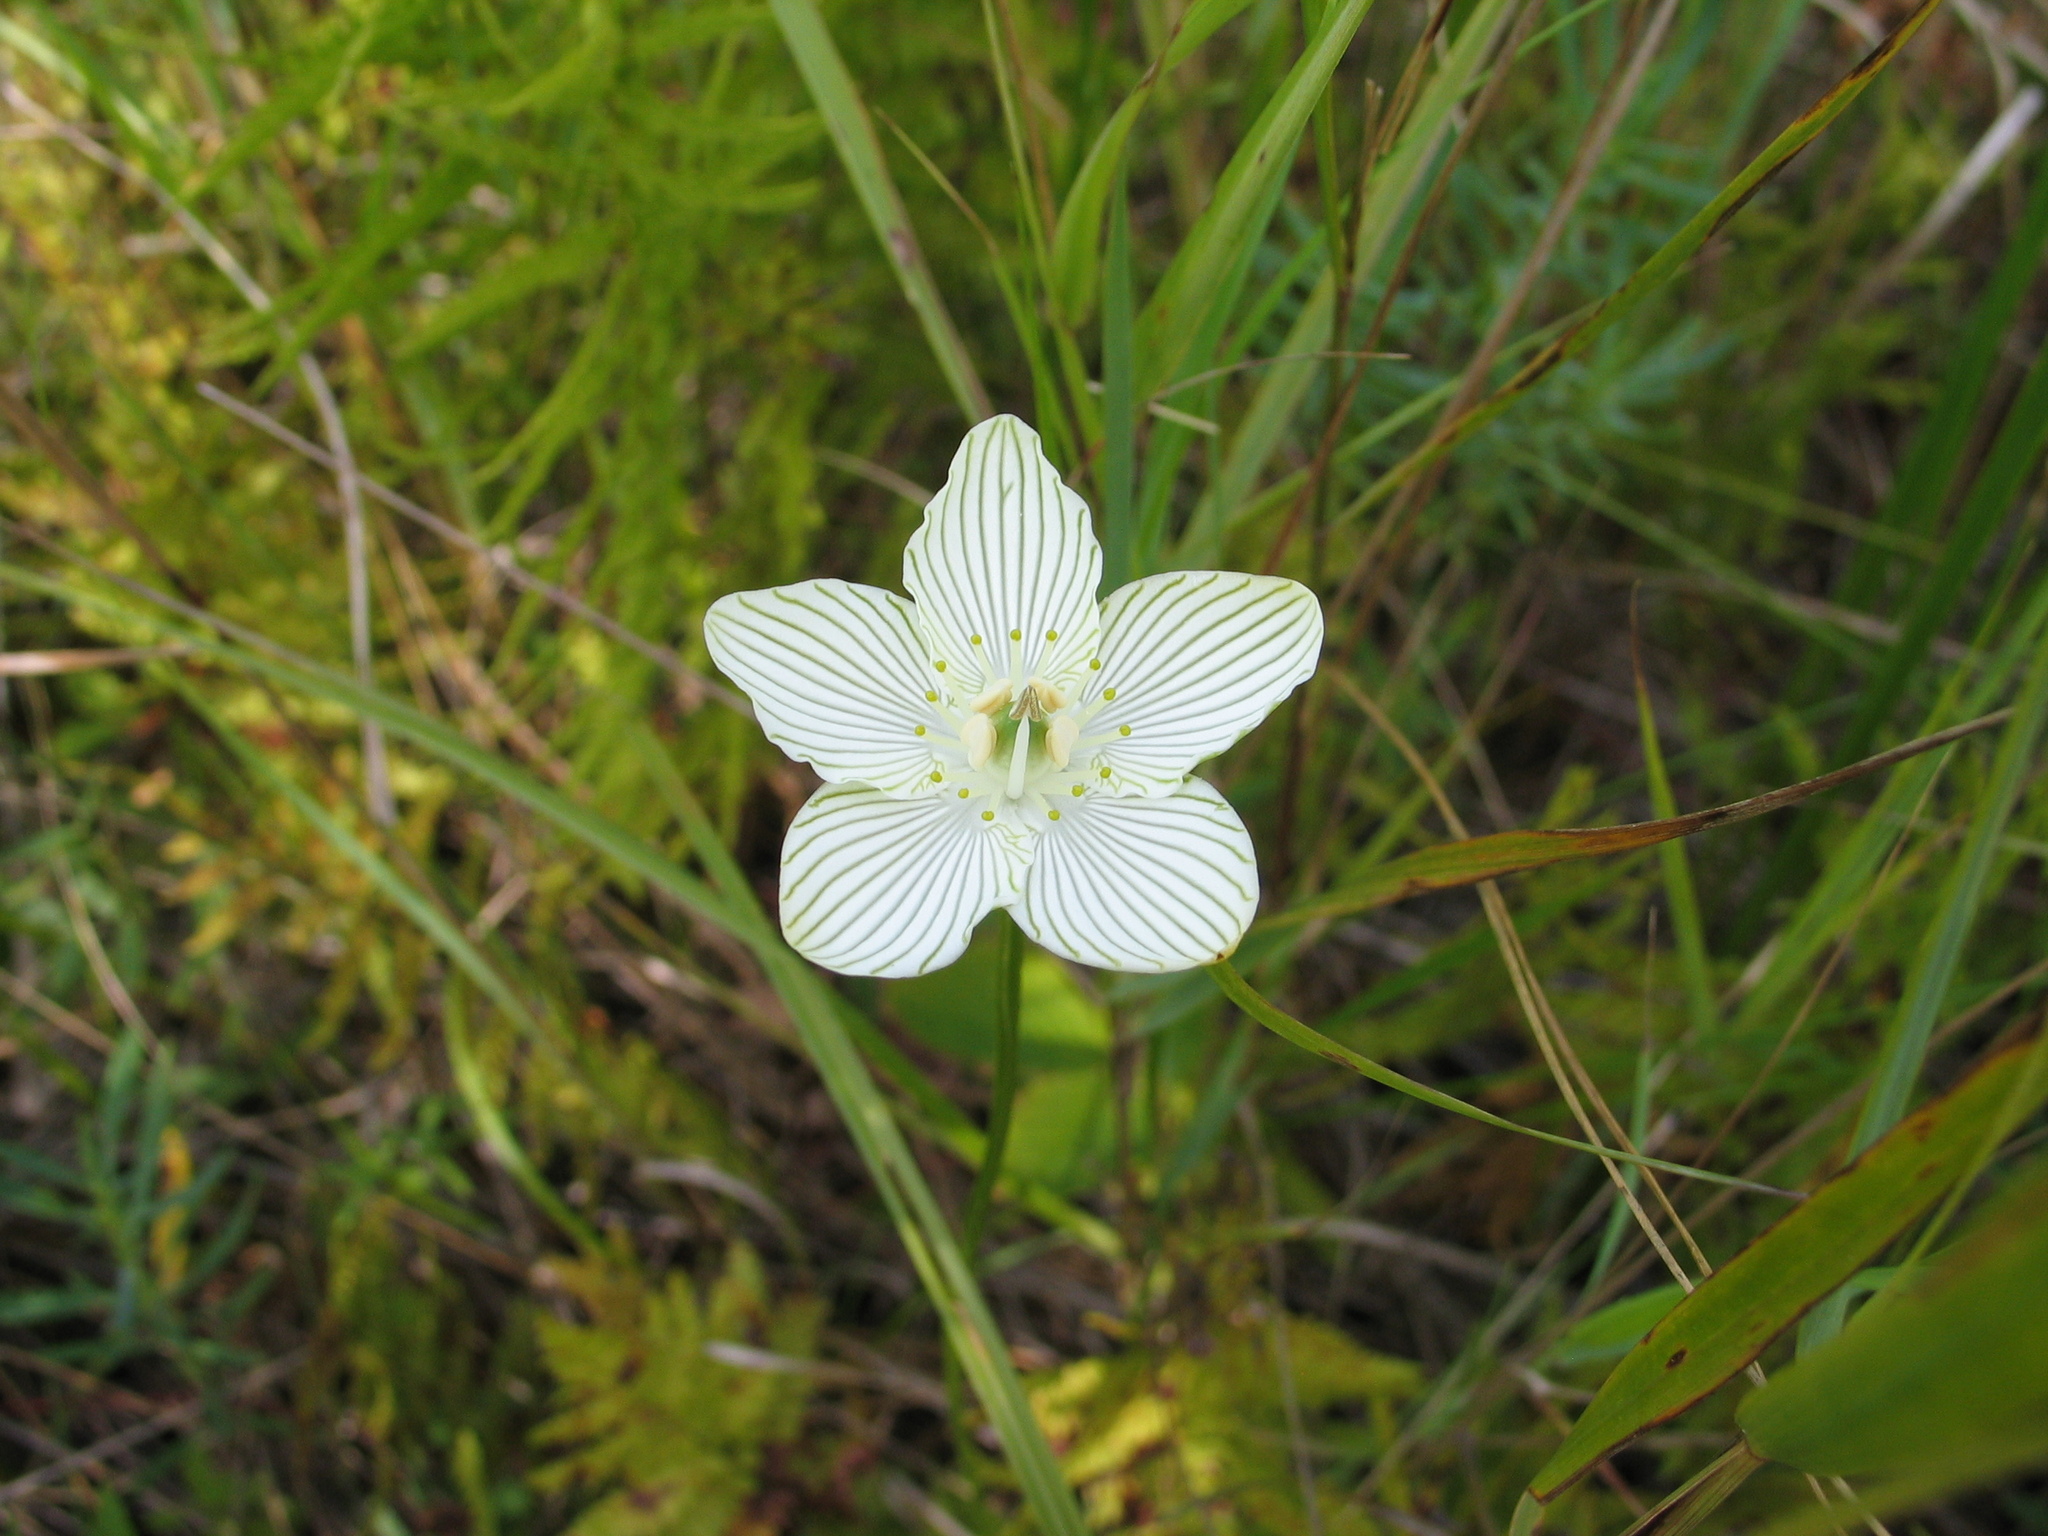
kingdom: Plantae
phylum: Tracheophyta
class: Magnoliopsida
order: Celastrales
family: Parnassiaceae
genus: Parnassia
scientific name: Parnassia glauca
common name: American grass-of-parnassus
